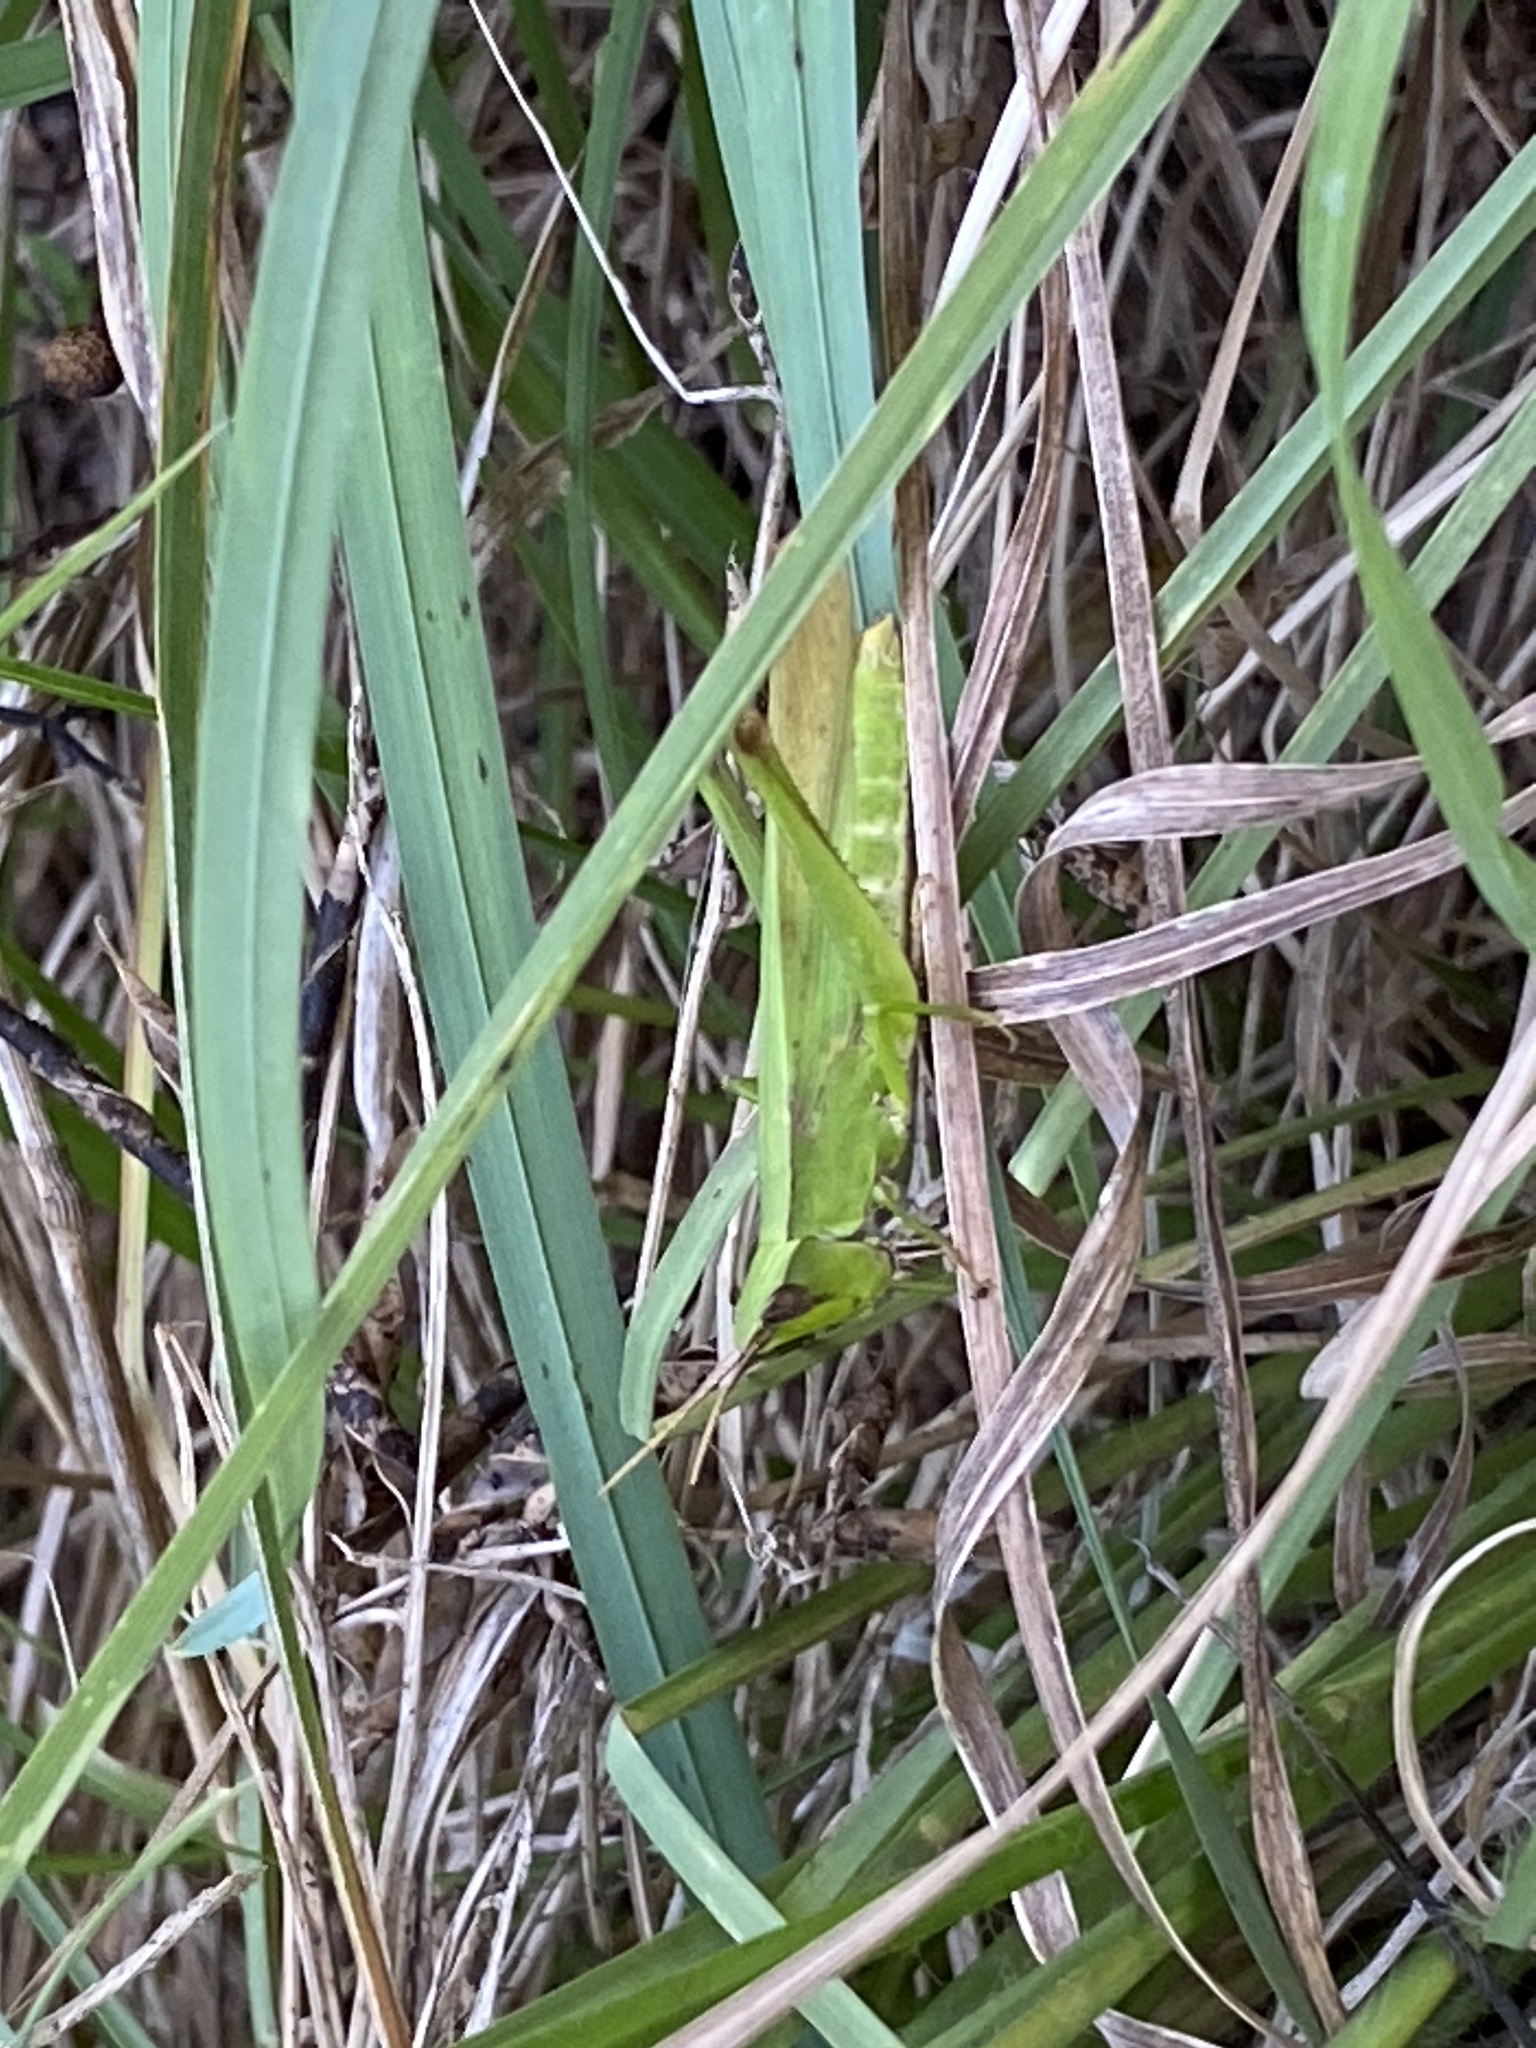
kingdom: Animalia
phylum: Arthropoda
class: Insecta
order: Orthoptera
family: Acrididae
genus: Metaleptea
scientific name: Metaleptea brevicornis
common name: Clipped-wing grasshopper
